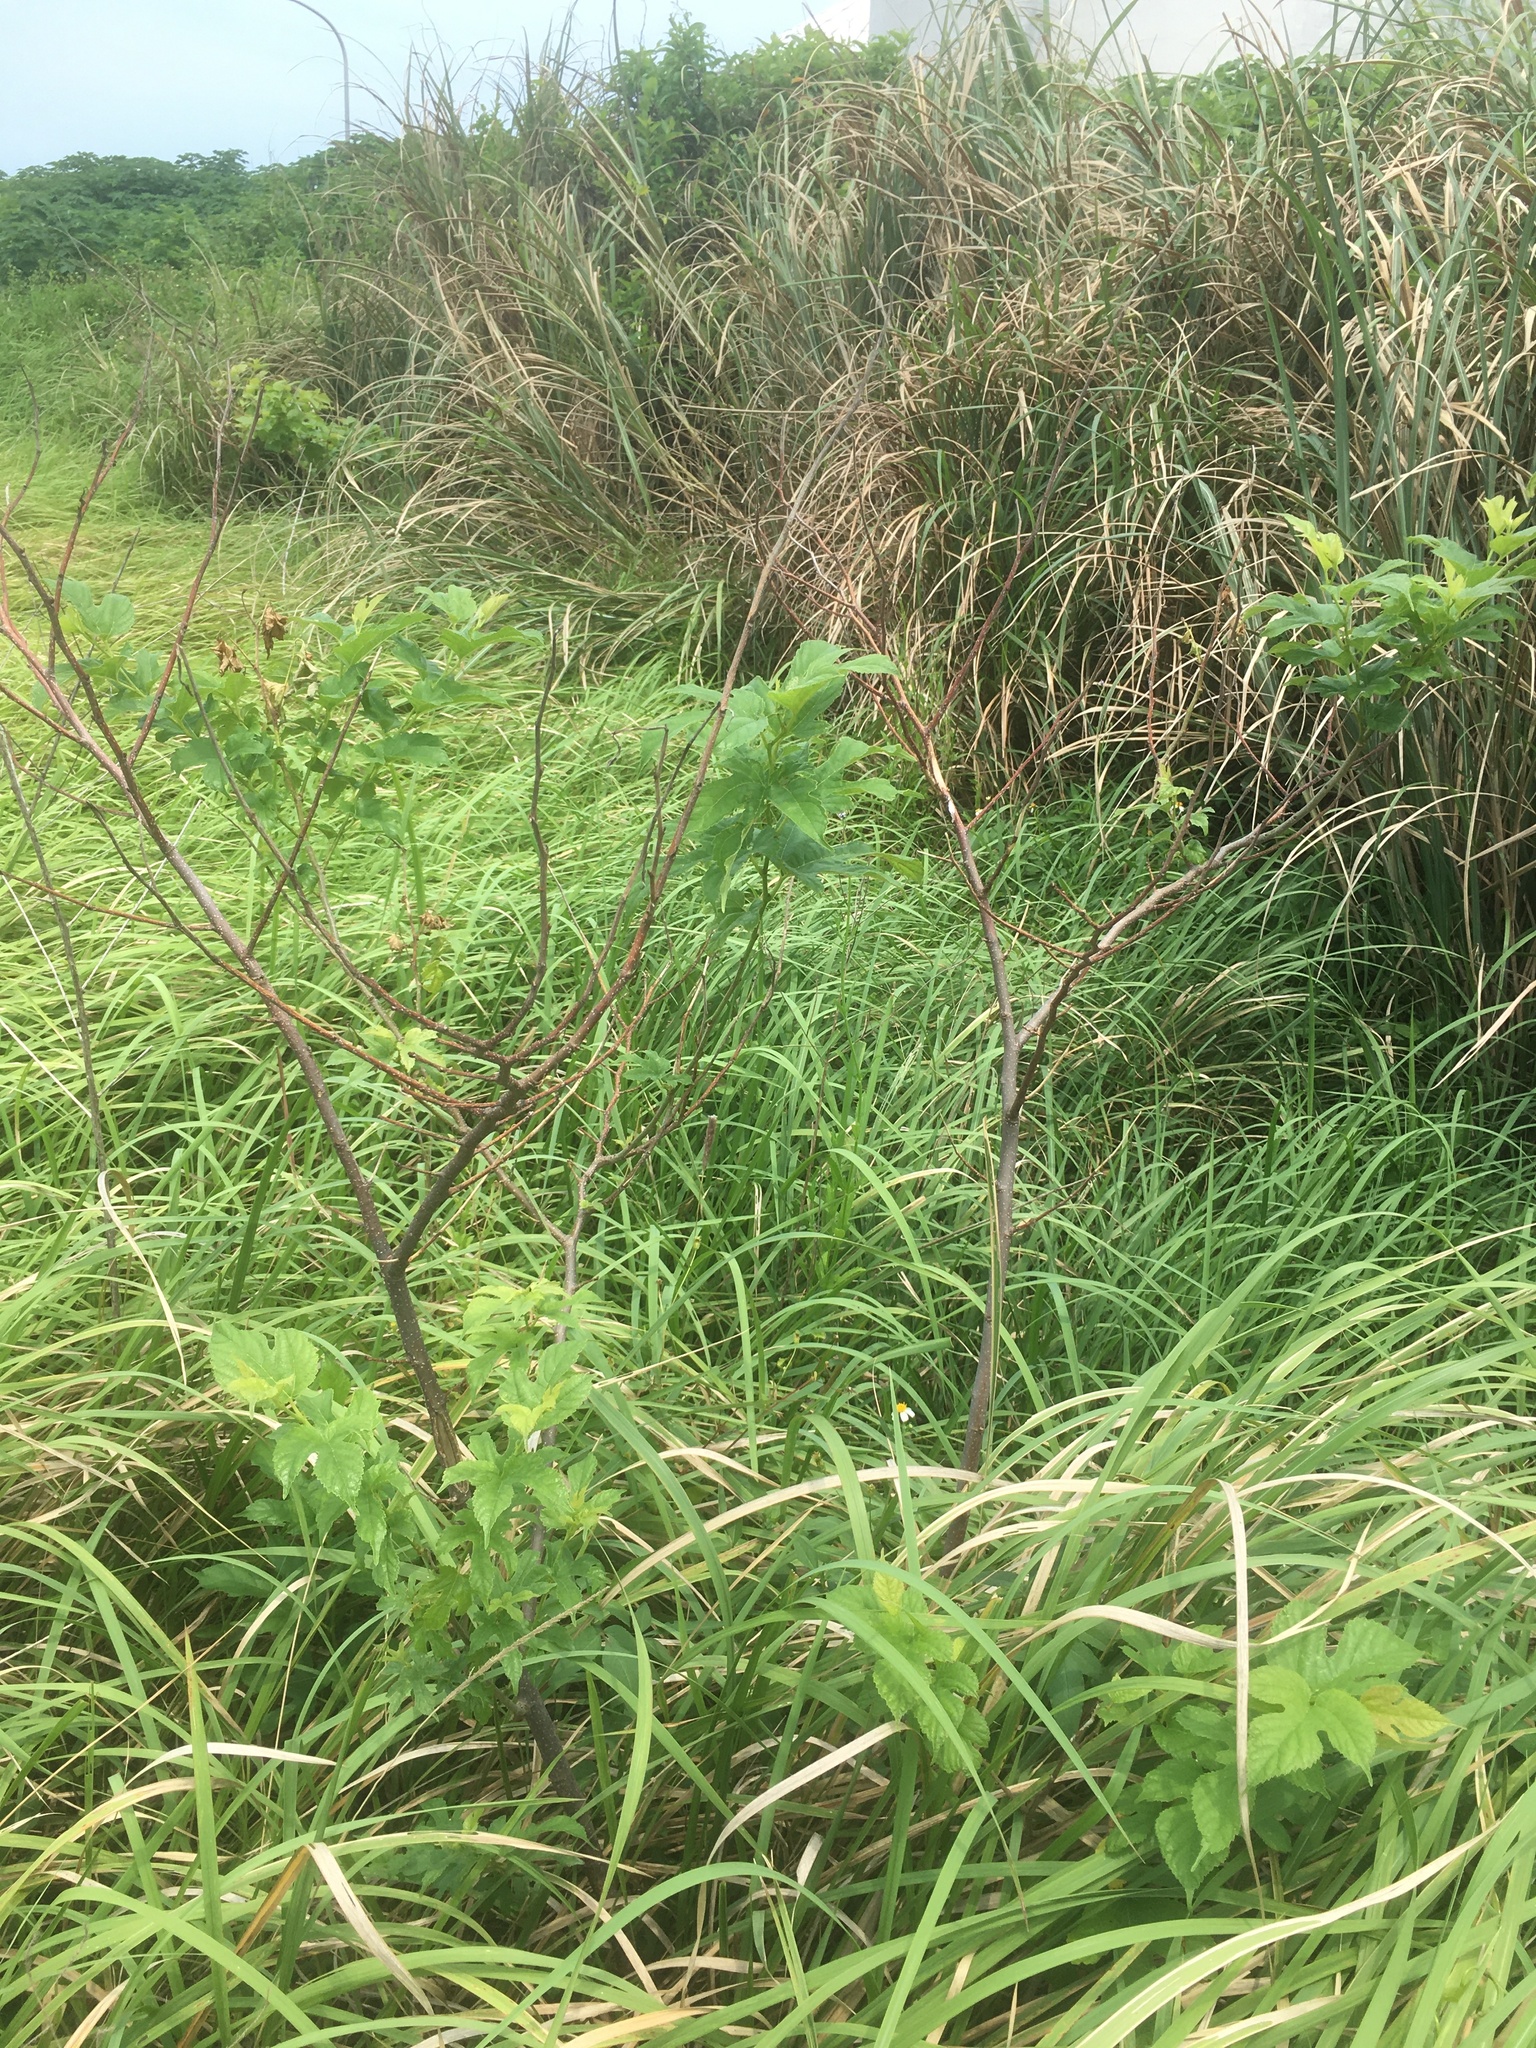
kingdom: Plantae
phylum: Tracheophyta
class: Magnoliopsida
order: Rosales
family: Moraceae
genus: Morus
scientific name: Morus indica
